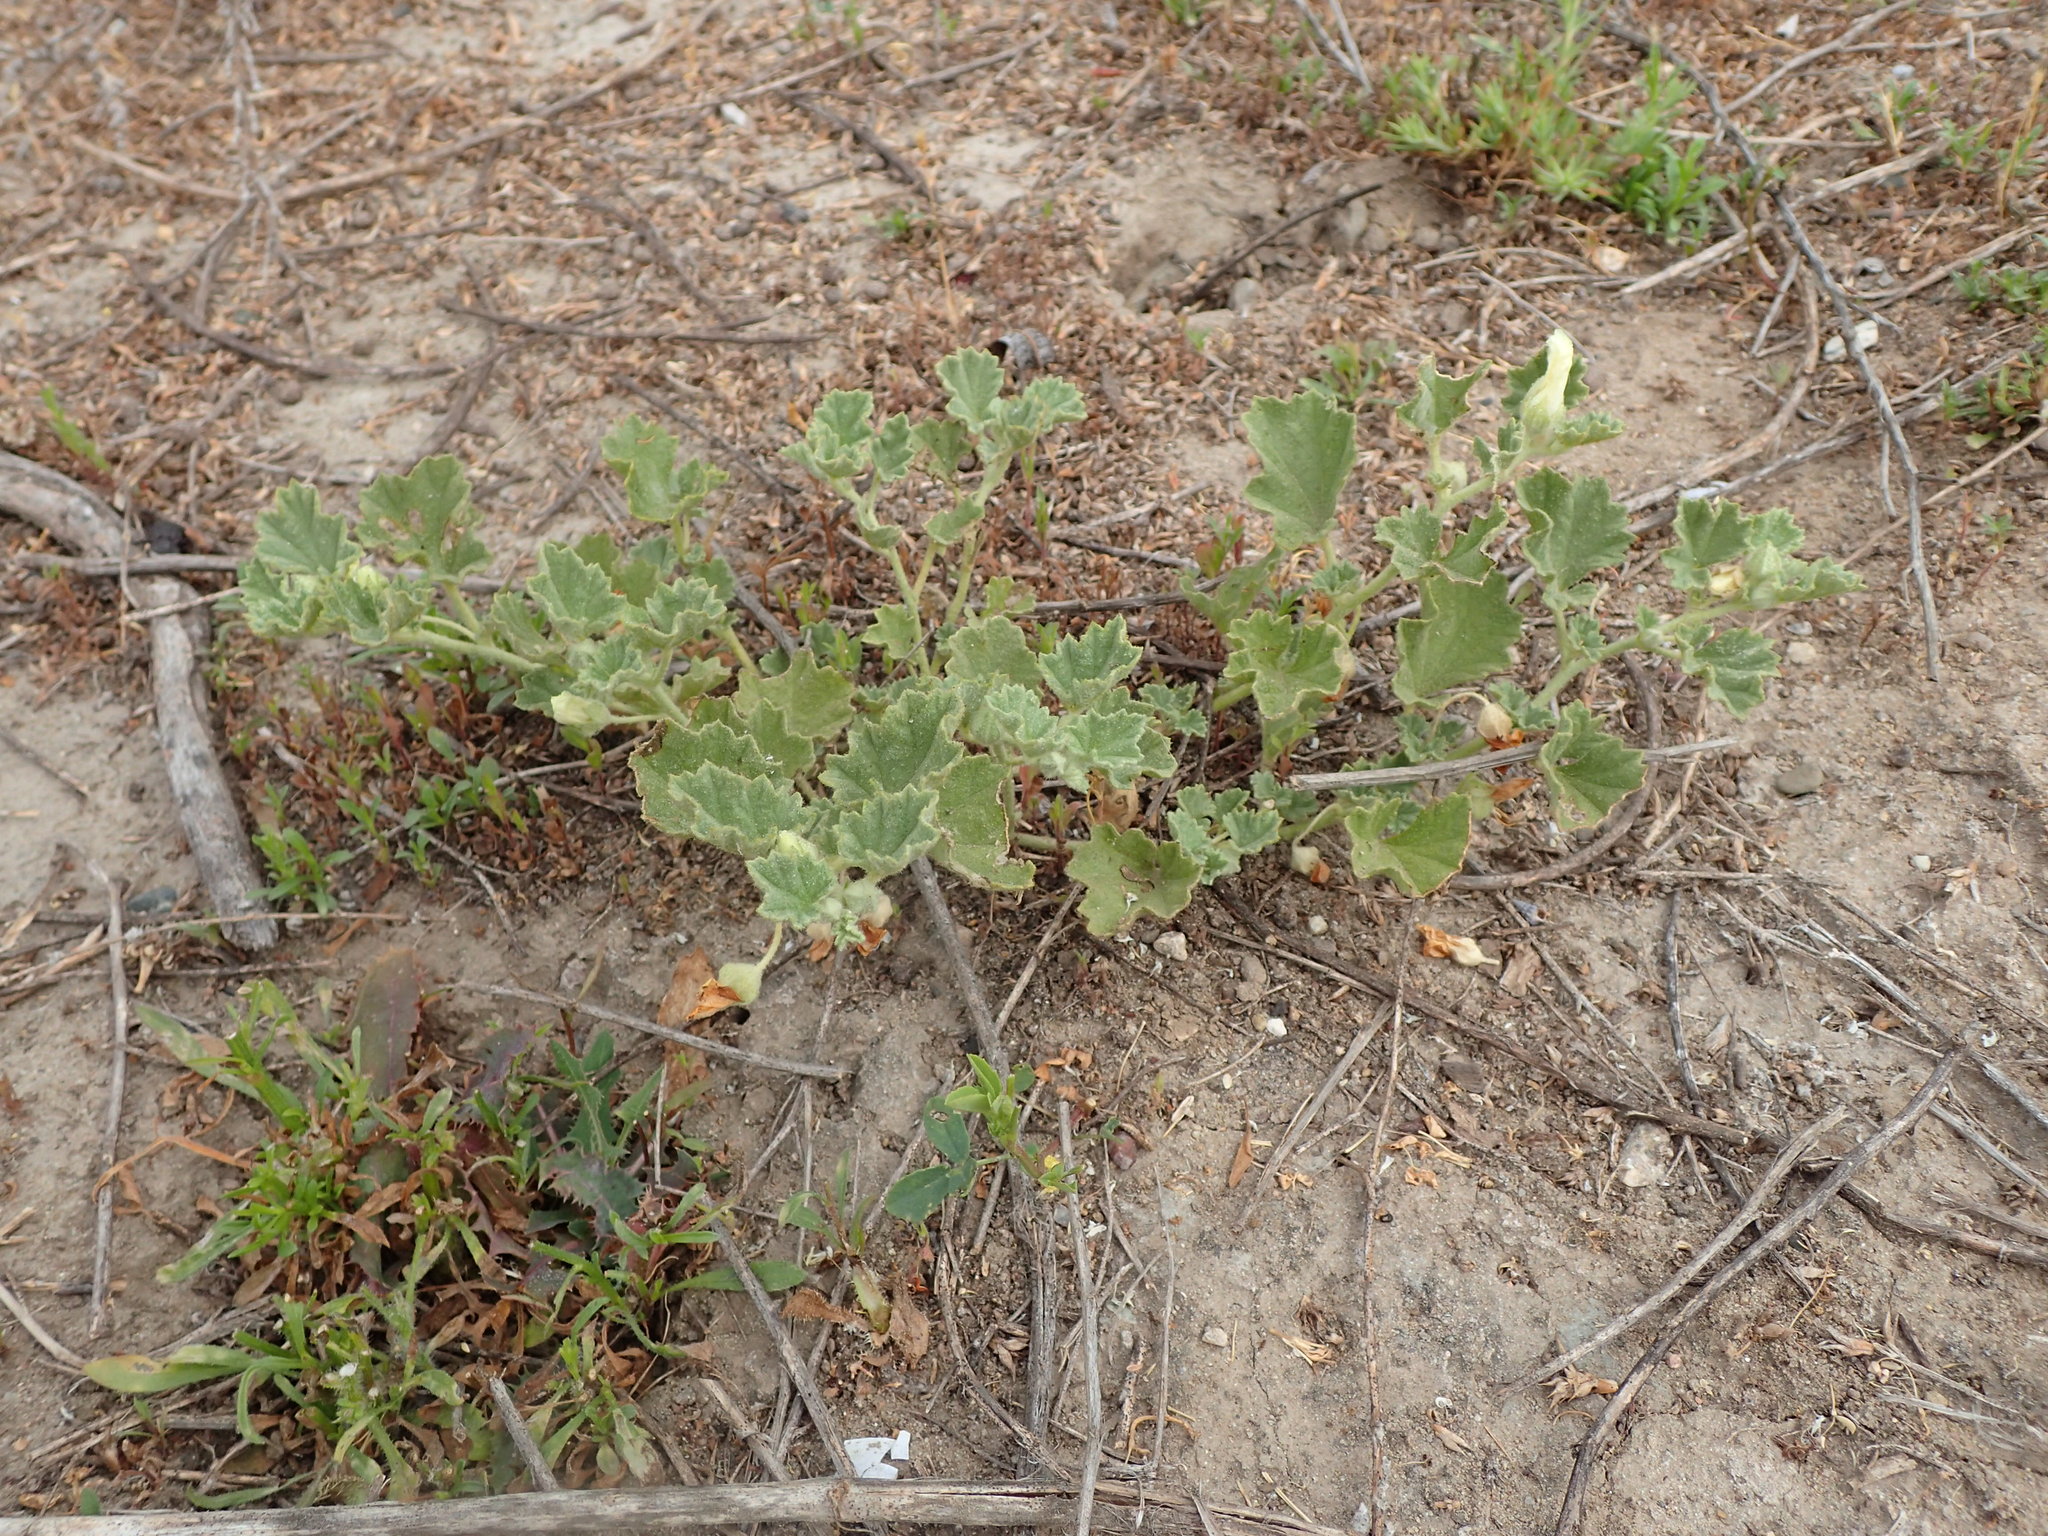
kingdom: Plantae
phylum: Tracheophyta
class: Magnoliopsida
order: Malvales
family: Malvaceae
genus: Malvella
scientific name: Malvella leprosa
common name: Alkali-mallow
